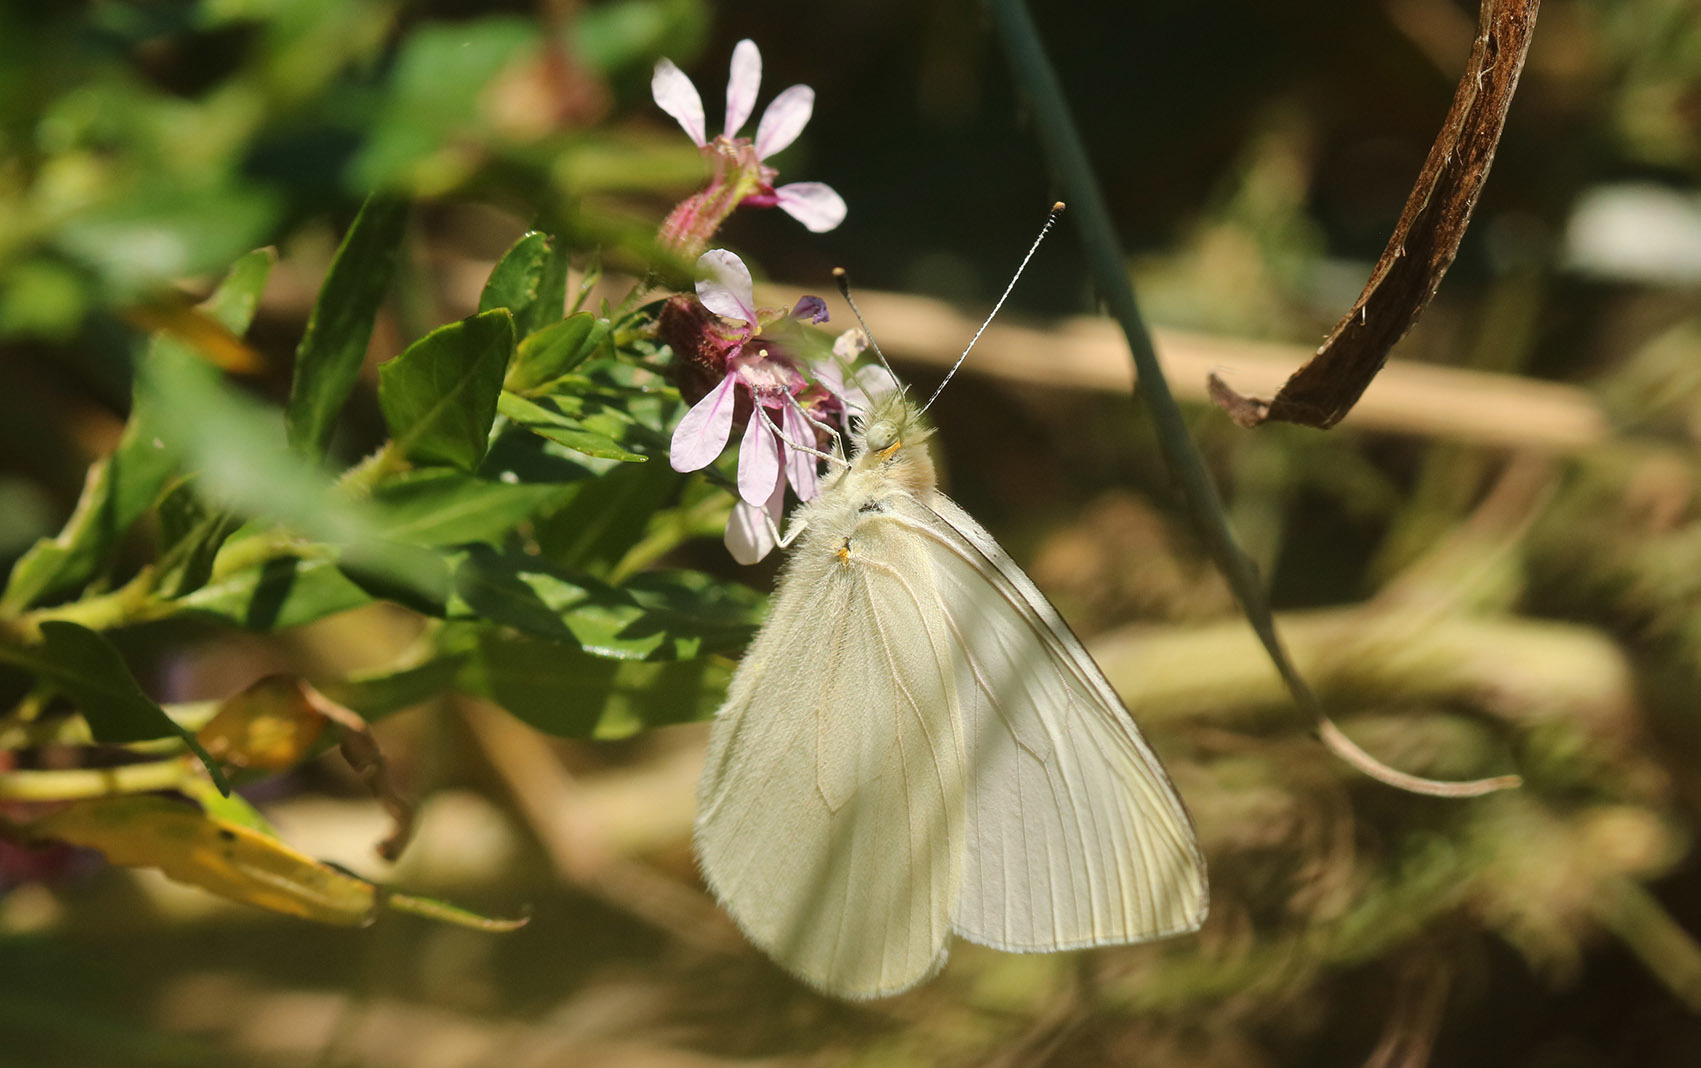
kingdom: Animalia
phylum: Arthropoda
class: Insecta
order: Lepidoptera
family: Pieridae
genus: Theochila
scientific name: Theochila maenacte
